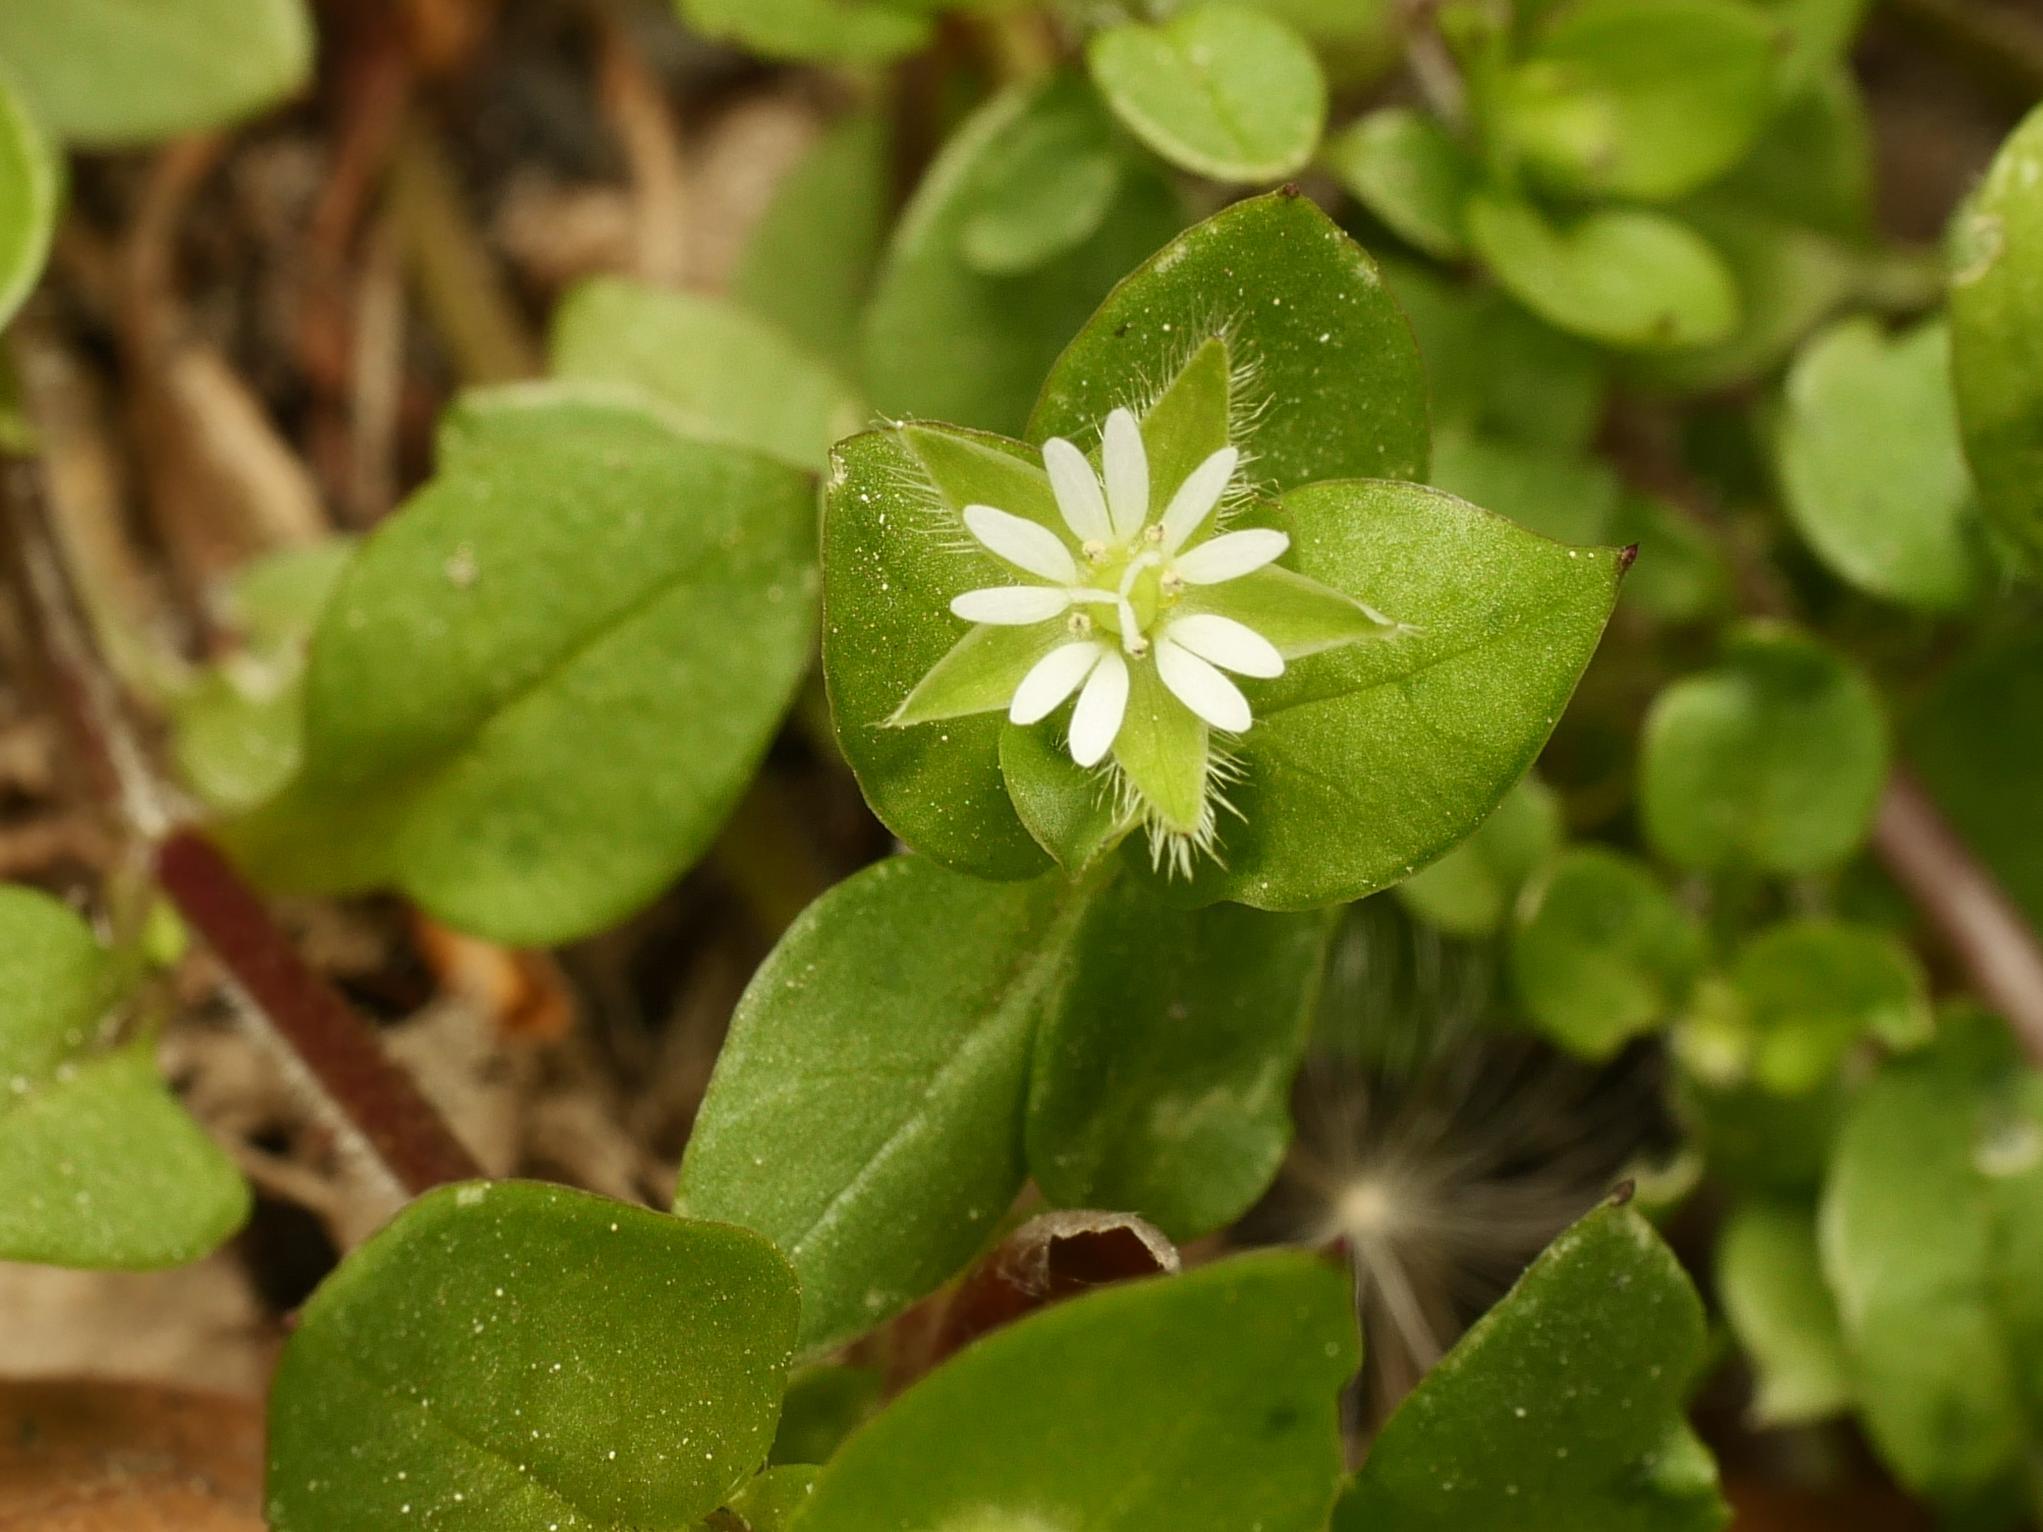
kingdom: Plantae
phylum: Tracheophyta
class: Magnoliopsida
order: Caryophyllales
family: Caryophyllaceae
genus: Stellaria
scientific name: Stellaria media
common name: Common chickweed
